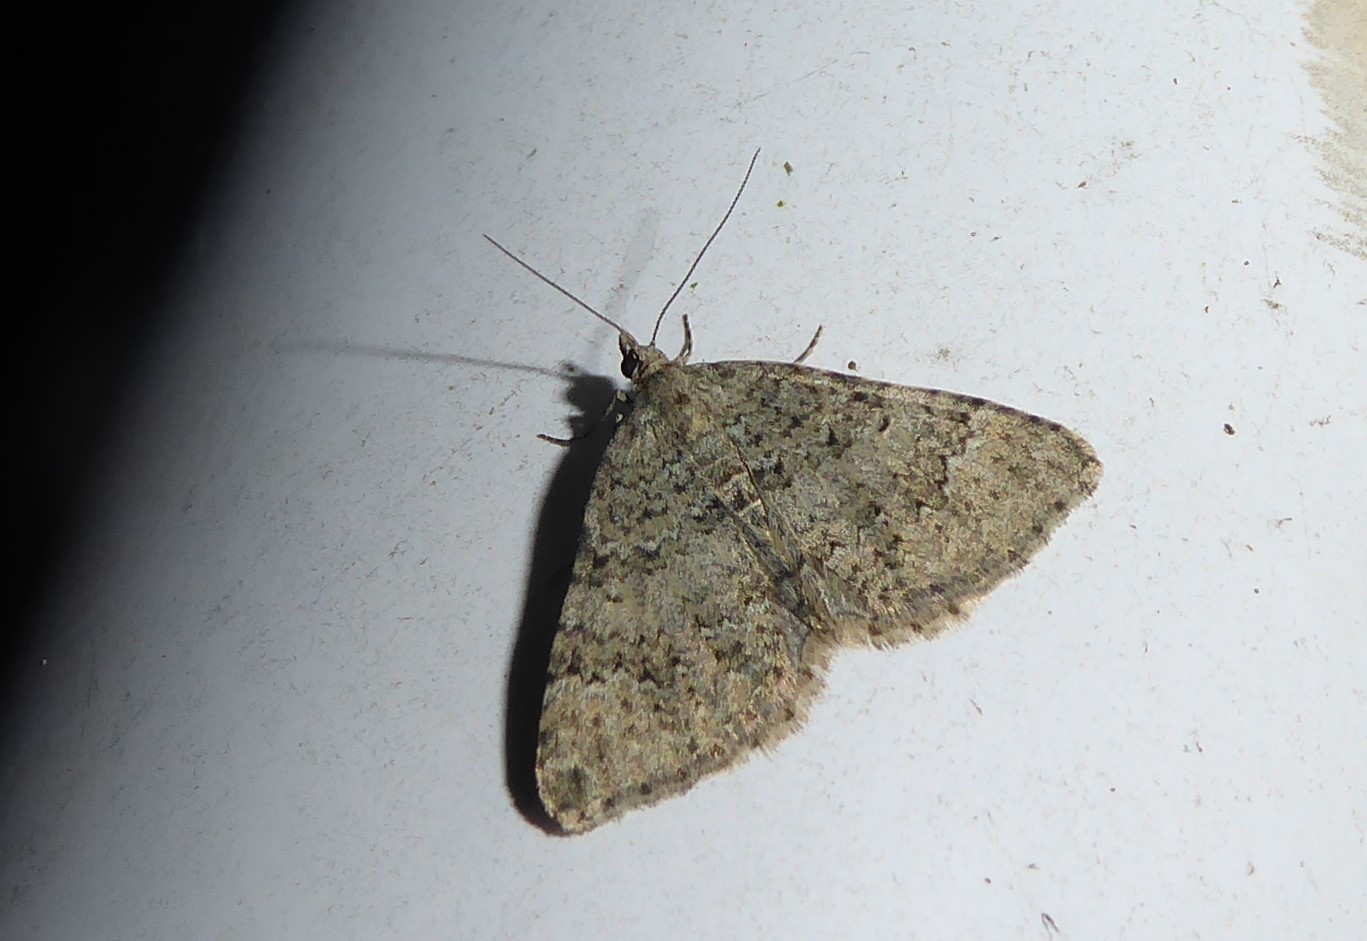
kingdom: Animalia
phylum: Arthropoda
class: Insecta
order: Lepidoptera
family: Geometridae
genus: Helastia
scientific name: Helastia corcularia
